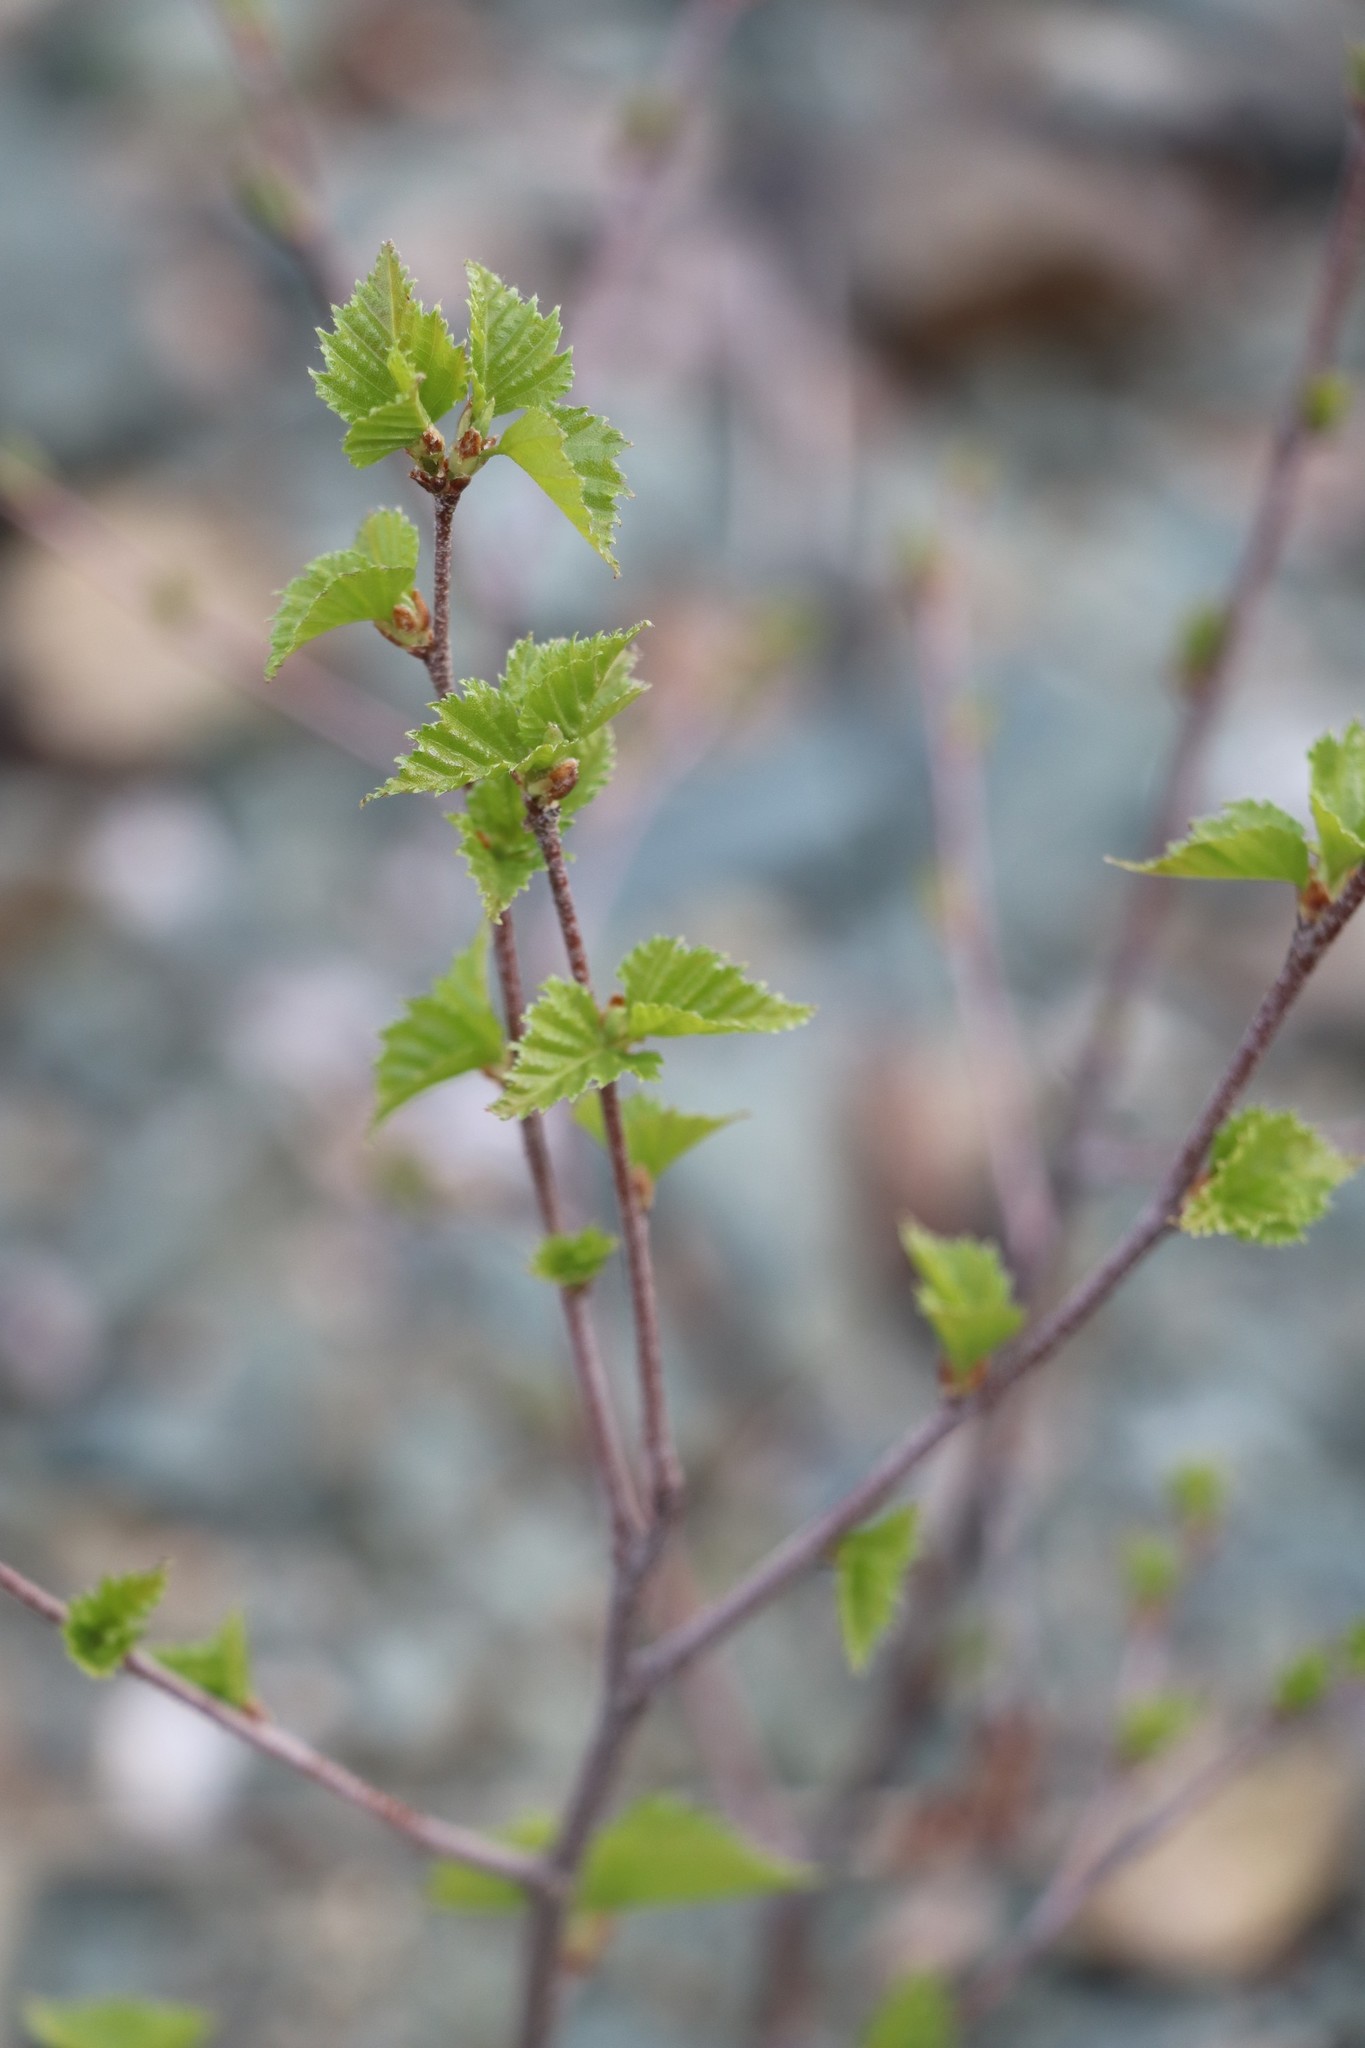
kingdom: Plantae
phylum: Tracheophyta
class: Magnoliopsida
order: Fagales
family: Betulaceae
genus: Betula
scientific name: Betula pendula
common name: Silver birch
